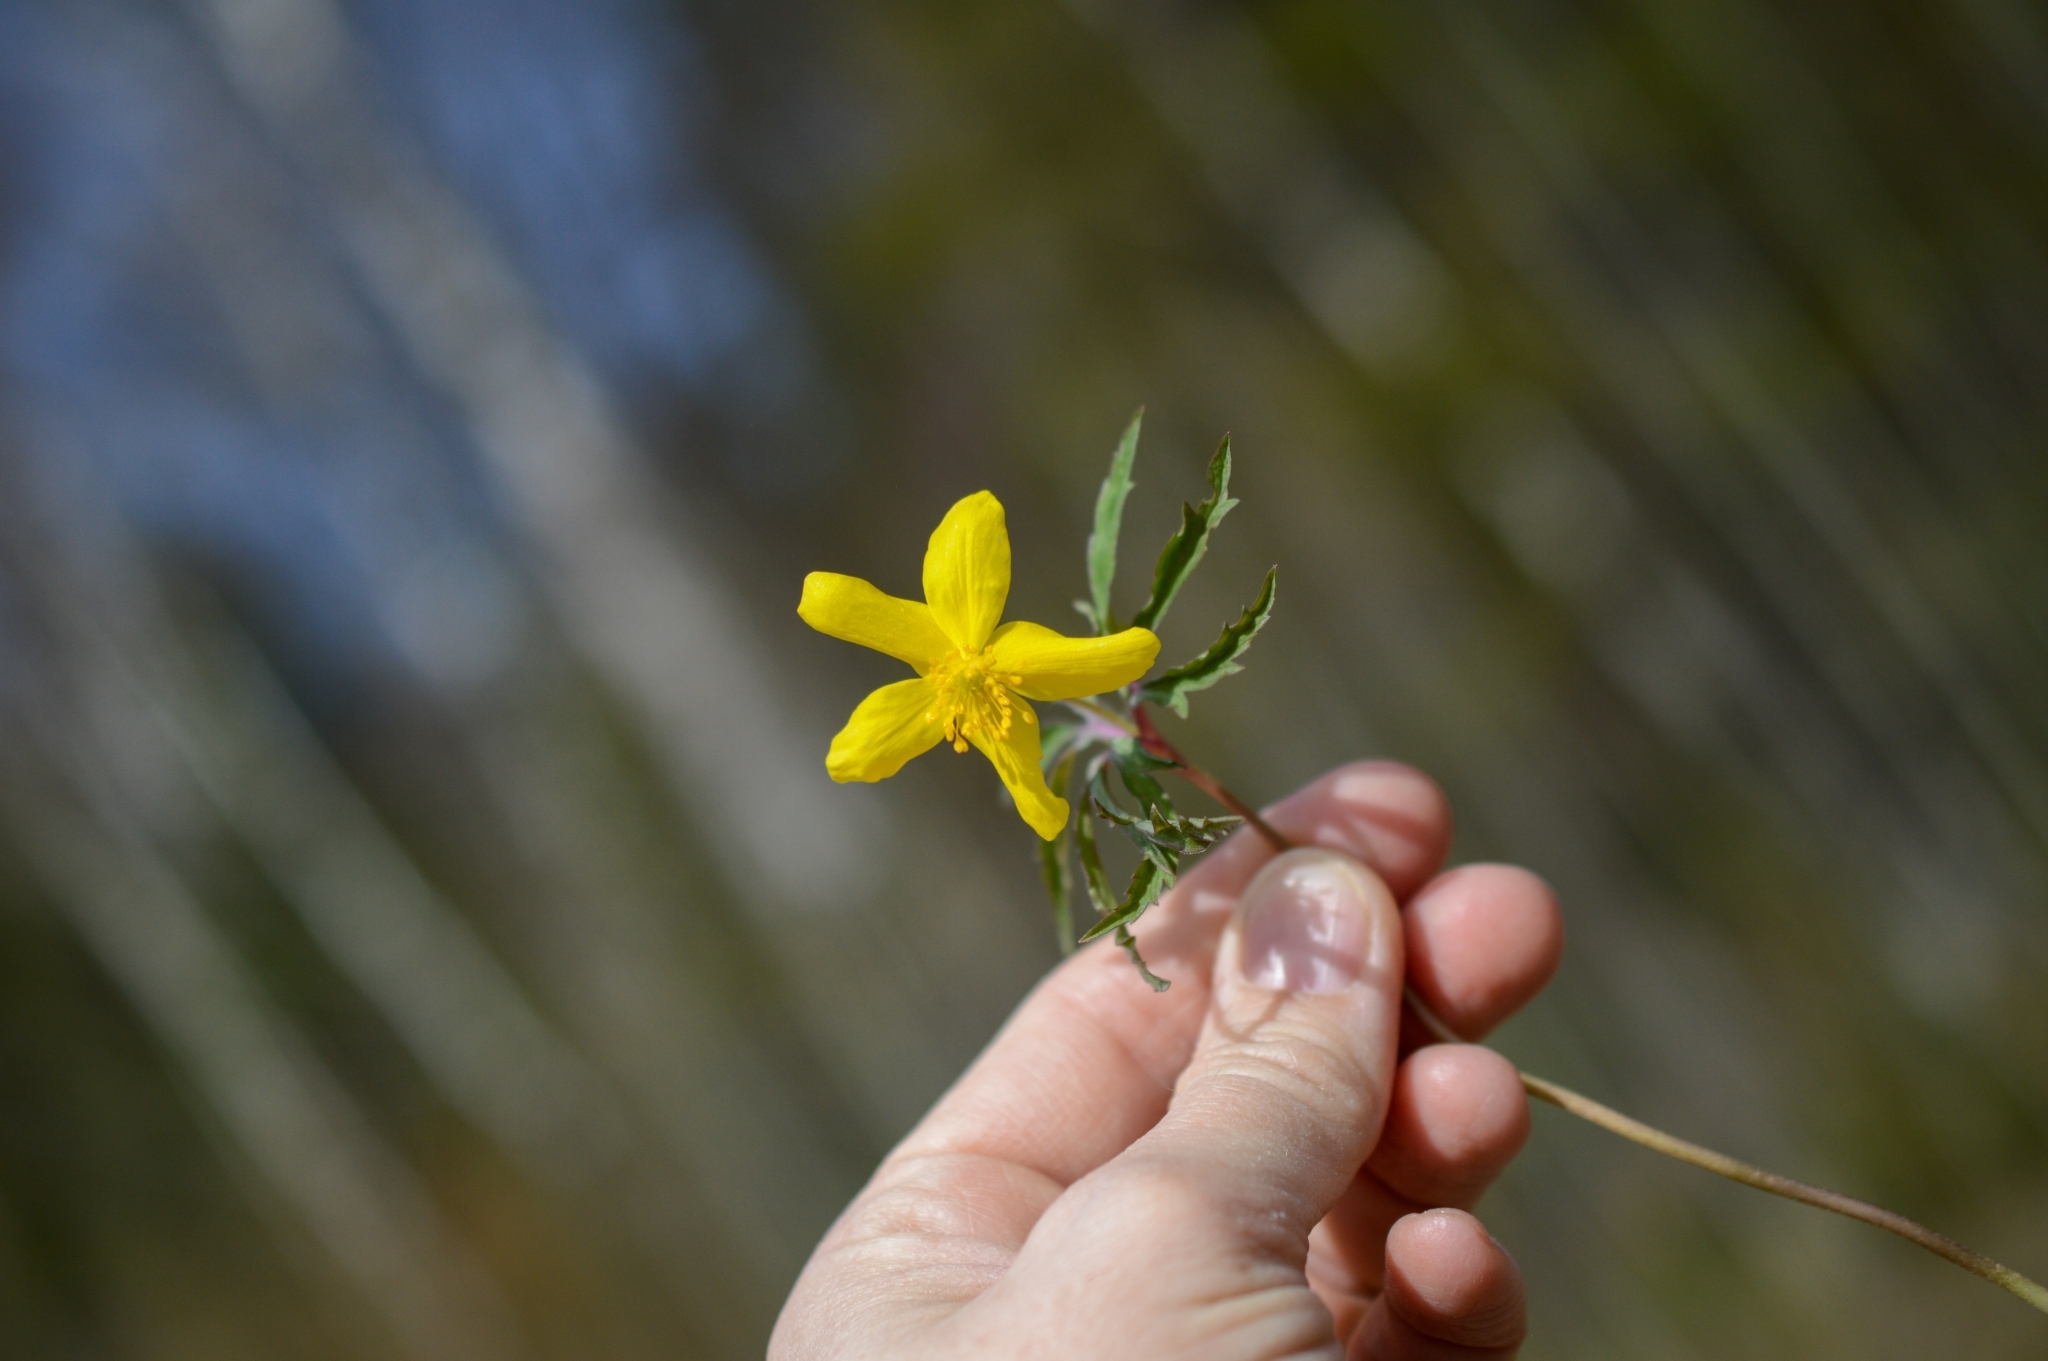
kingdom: Plantae
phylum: Tracheophyta
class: Magnoliopsida
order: Ranunculales
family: Ranunculaceae
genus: Anemone
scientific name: Anemone ranunculoides
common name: Yellow anemone
